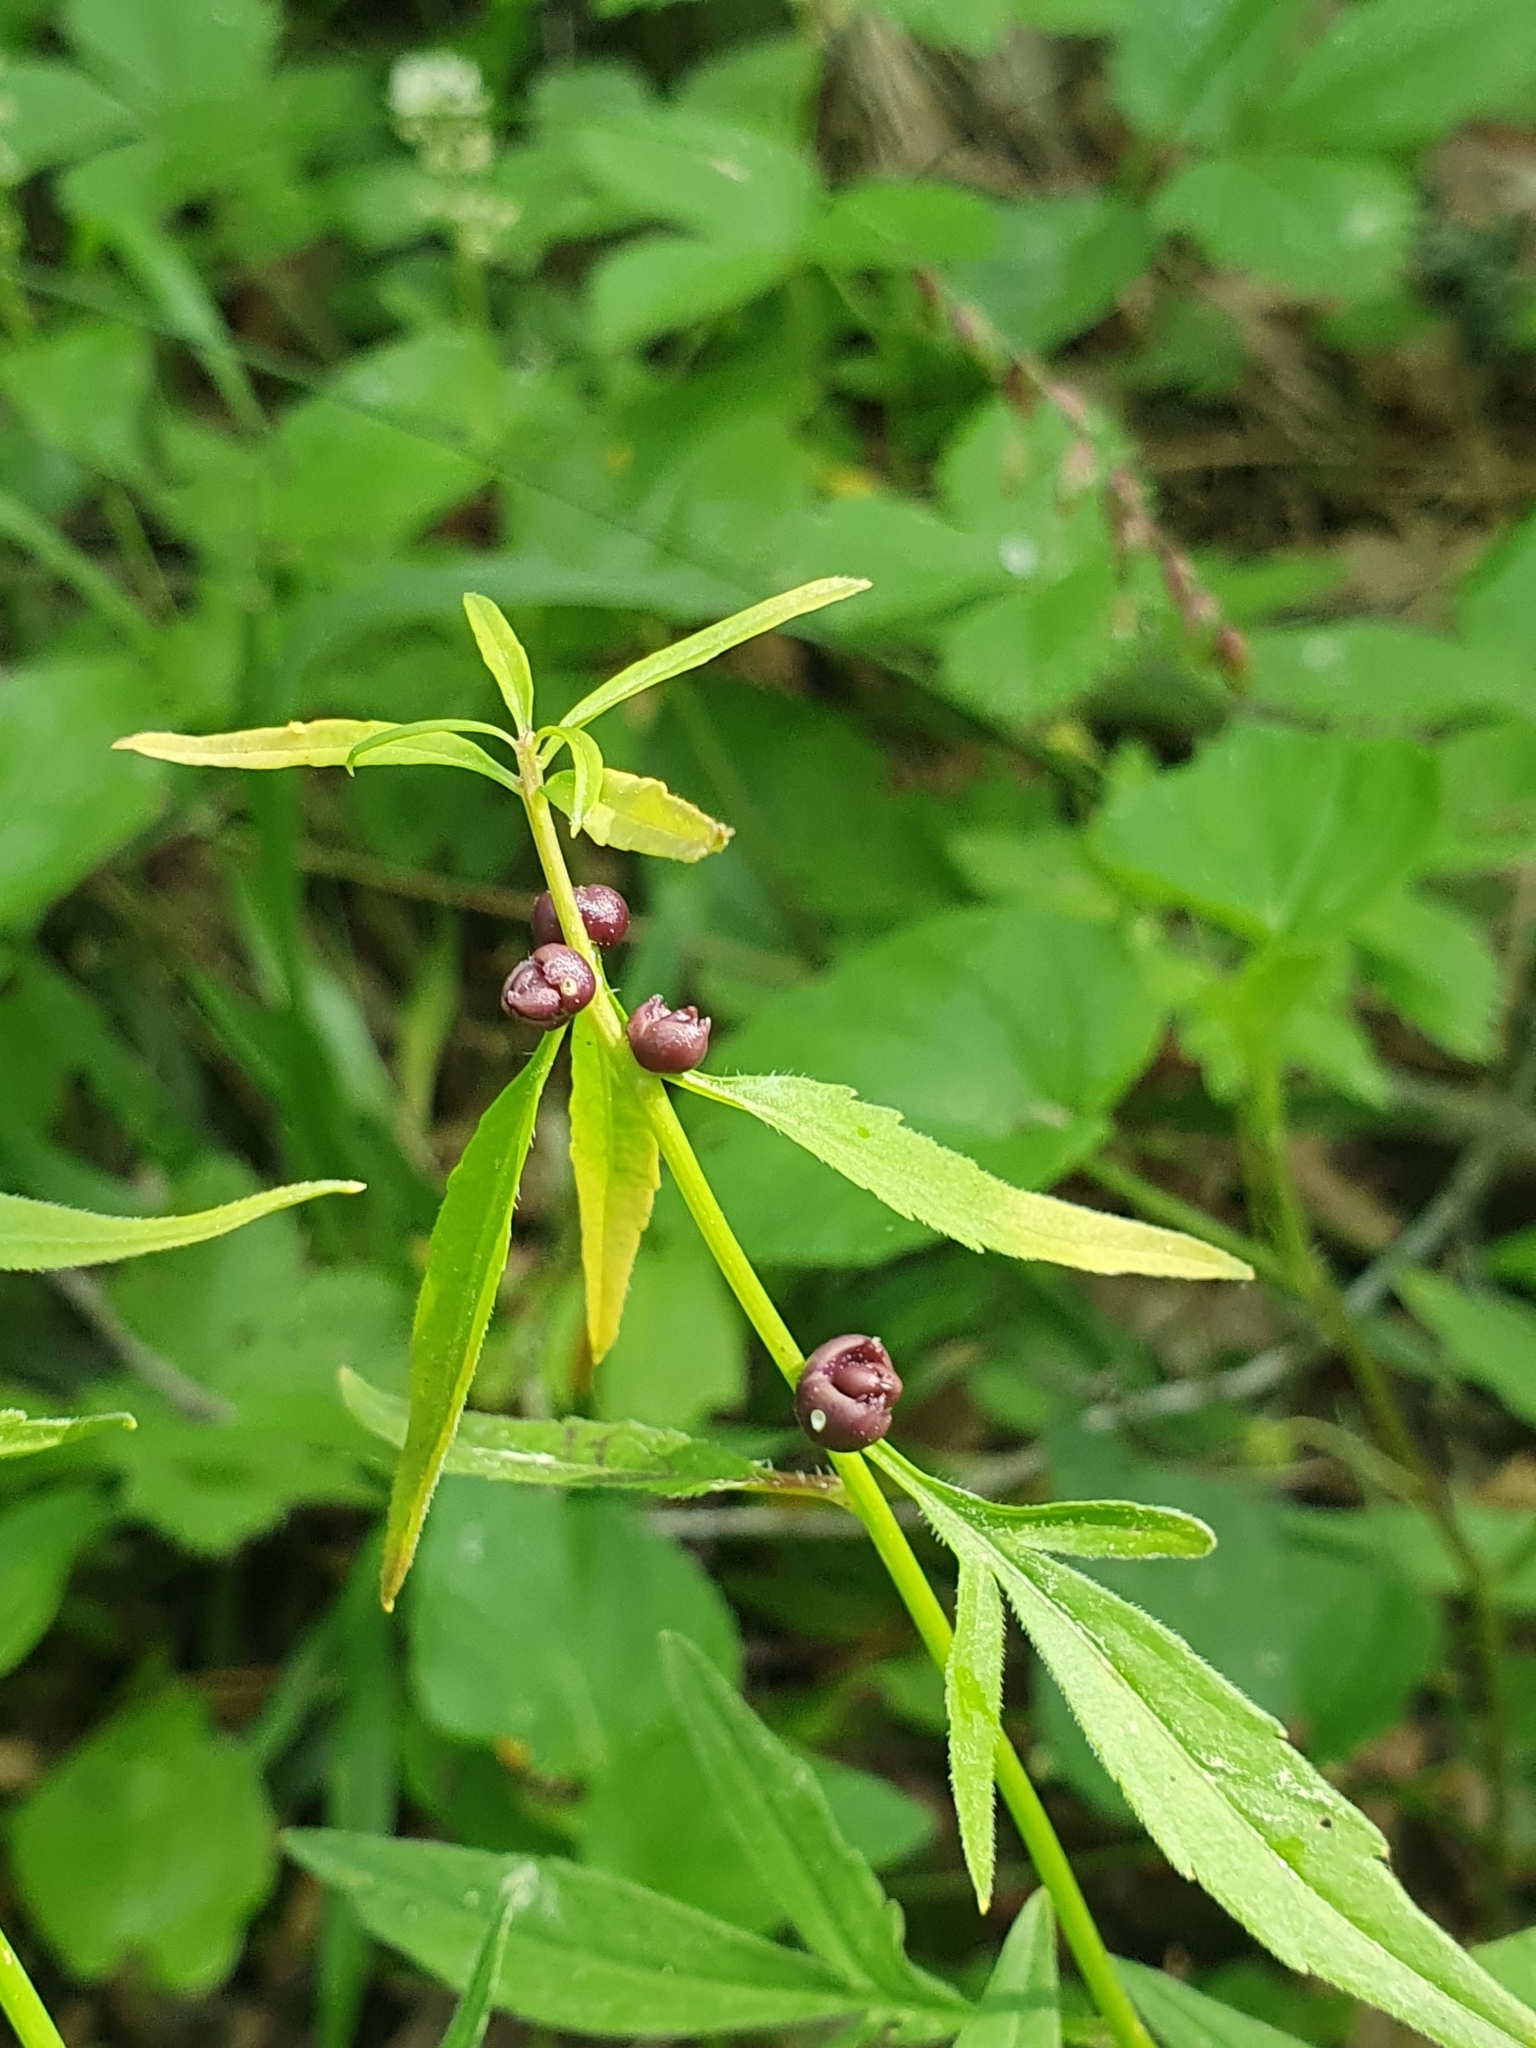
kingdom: Plantae
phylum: Tracheophyta
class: Magnoliopsida
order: Brassicales
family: Brassicaceae
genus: Cardamine
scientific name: Cardamine bulbifera
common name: Coralroot bittercress
